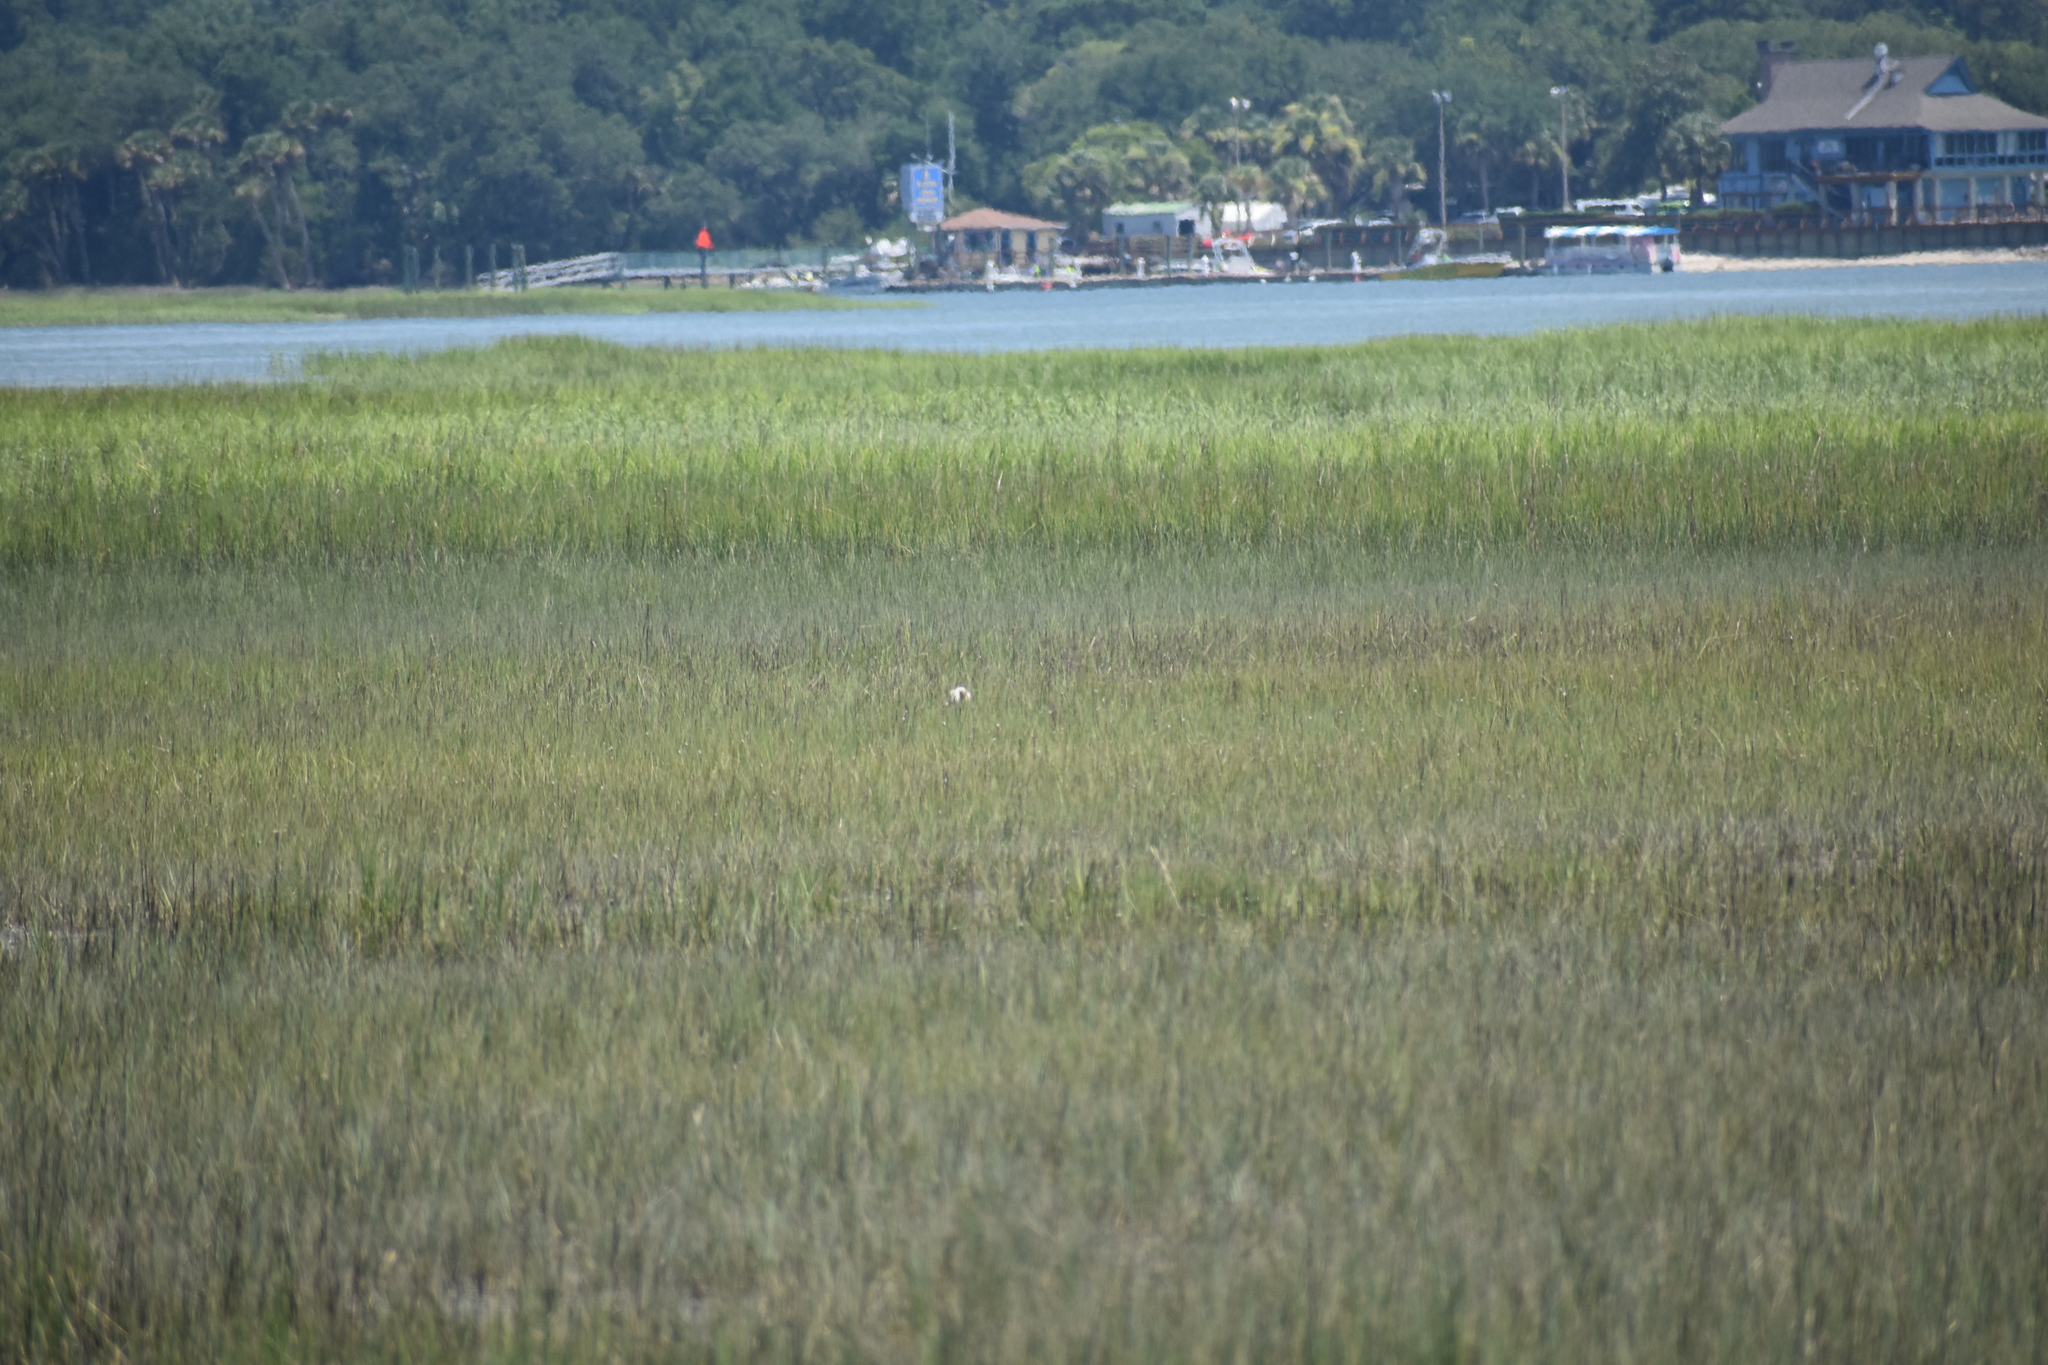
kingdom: Animalia
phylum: Chordata
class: Aves
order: Pelecaniformes
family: Threskiornithidae
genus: Eudocimus
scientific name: Eudocimus albus
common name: White ibis
